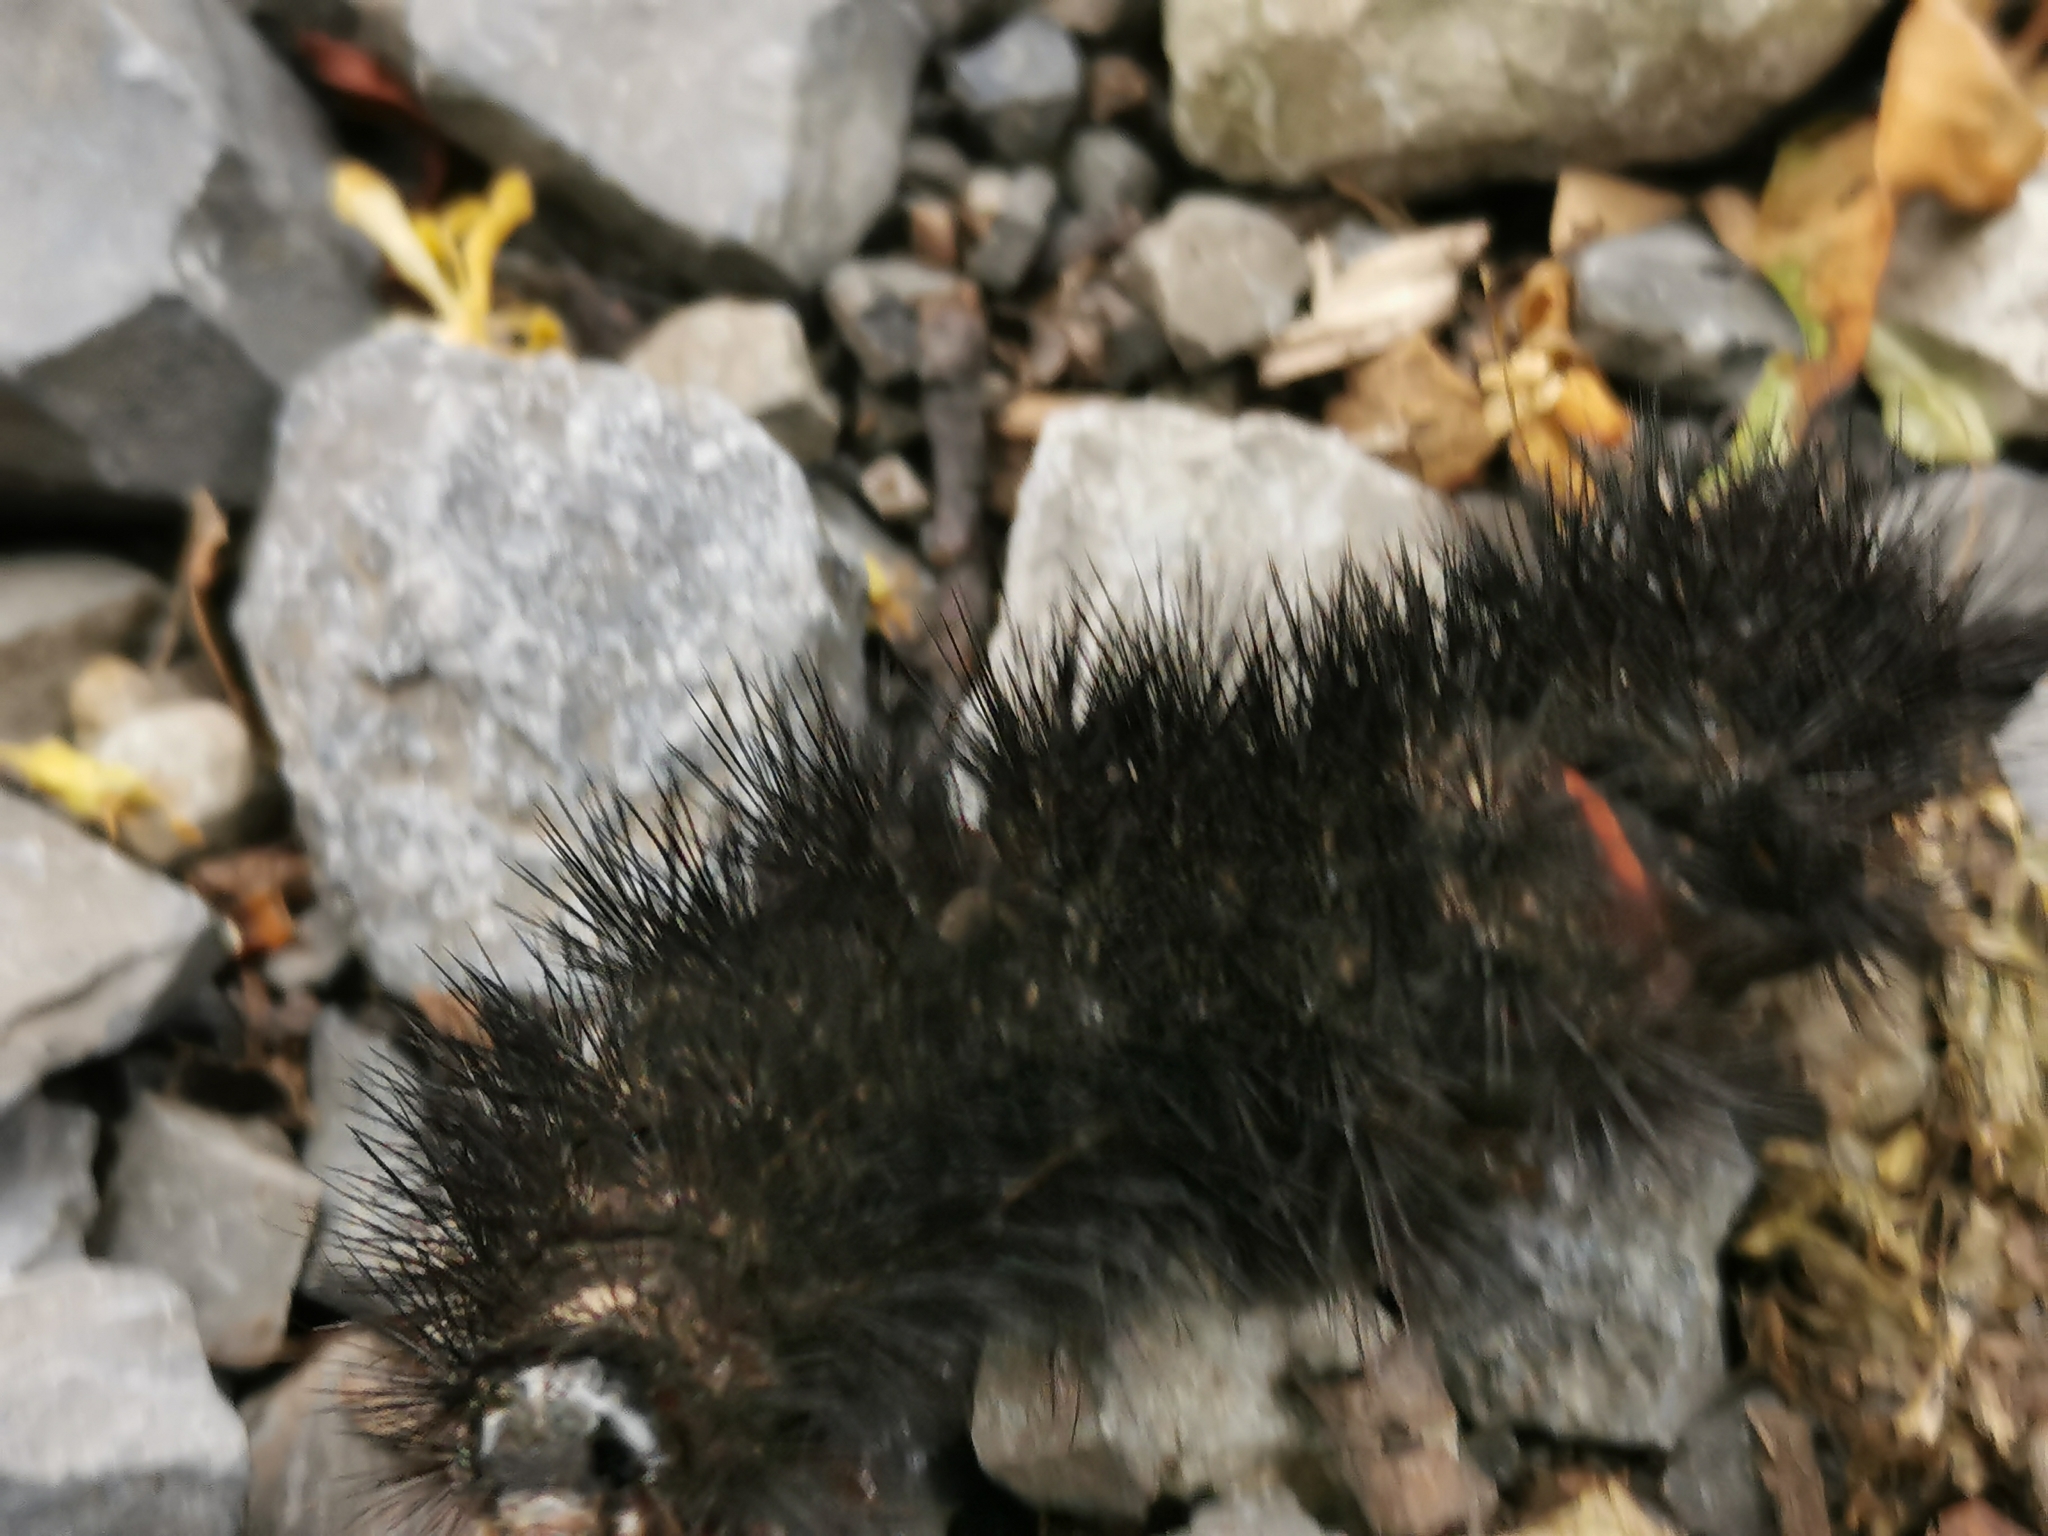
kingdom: Animalia
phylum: Arthropoda
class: Insecta
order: Lepidoptera
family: Erebidae
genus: Hypercompe
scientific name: Hypercompe scribonia
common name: Giant leopard moth
